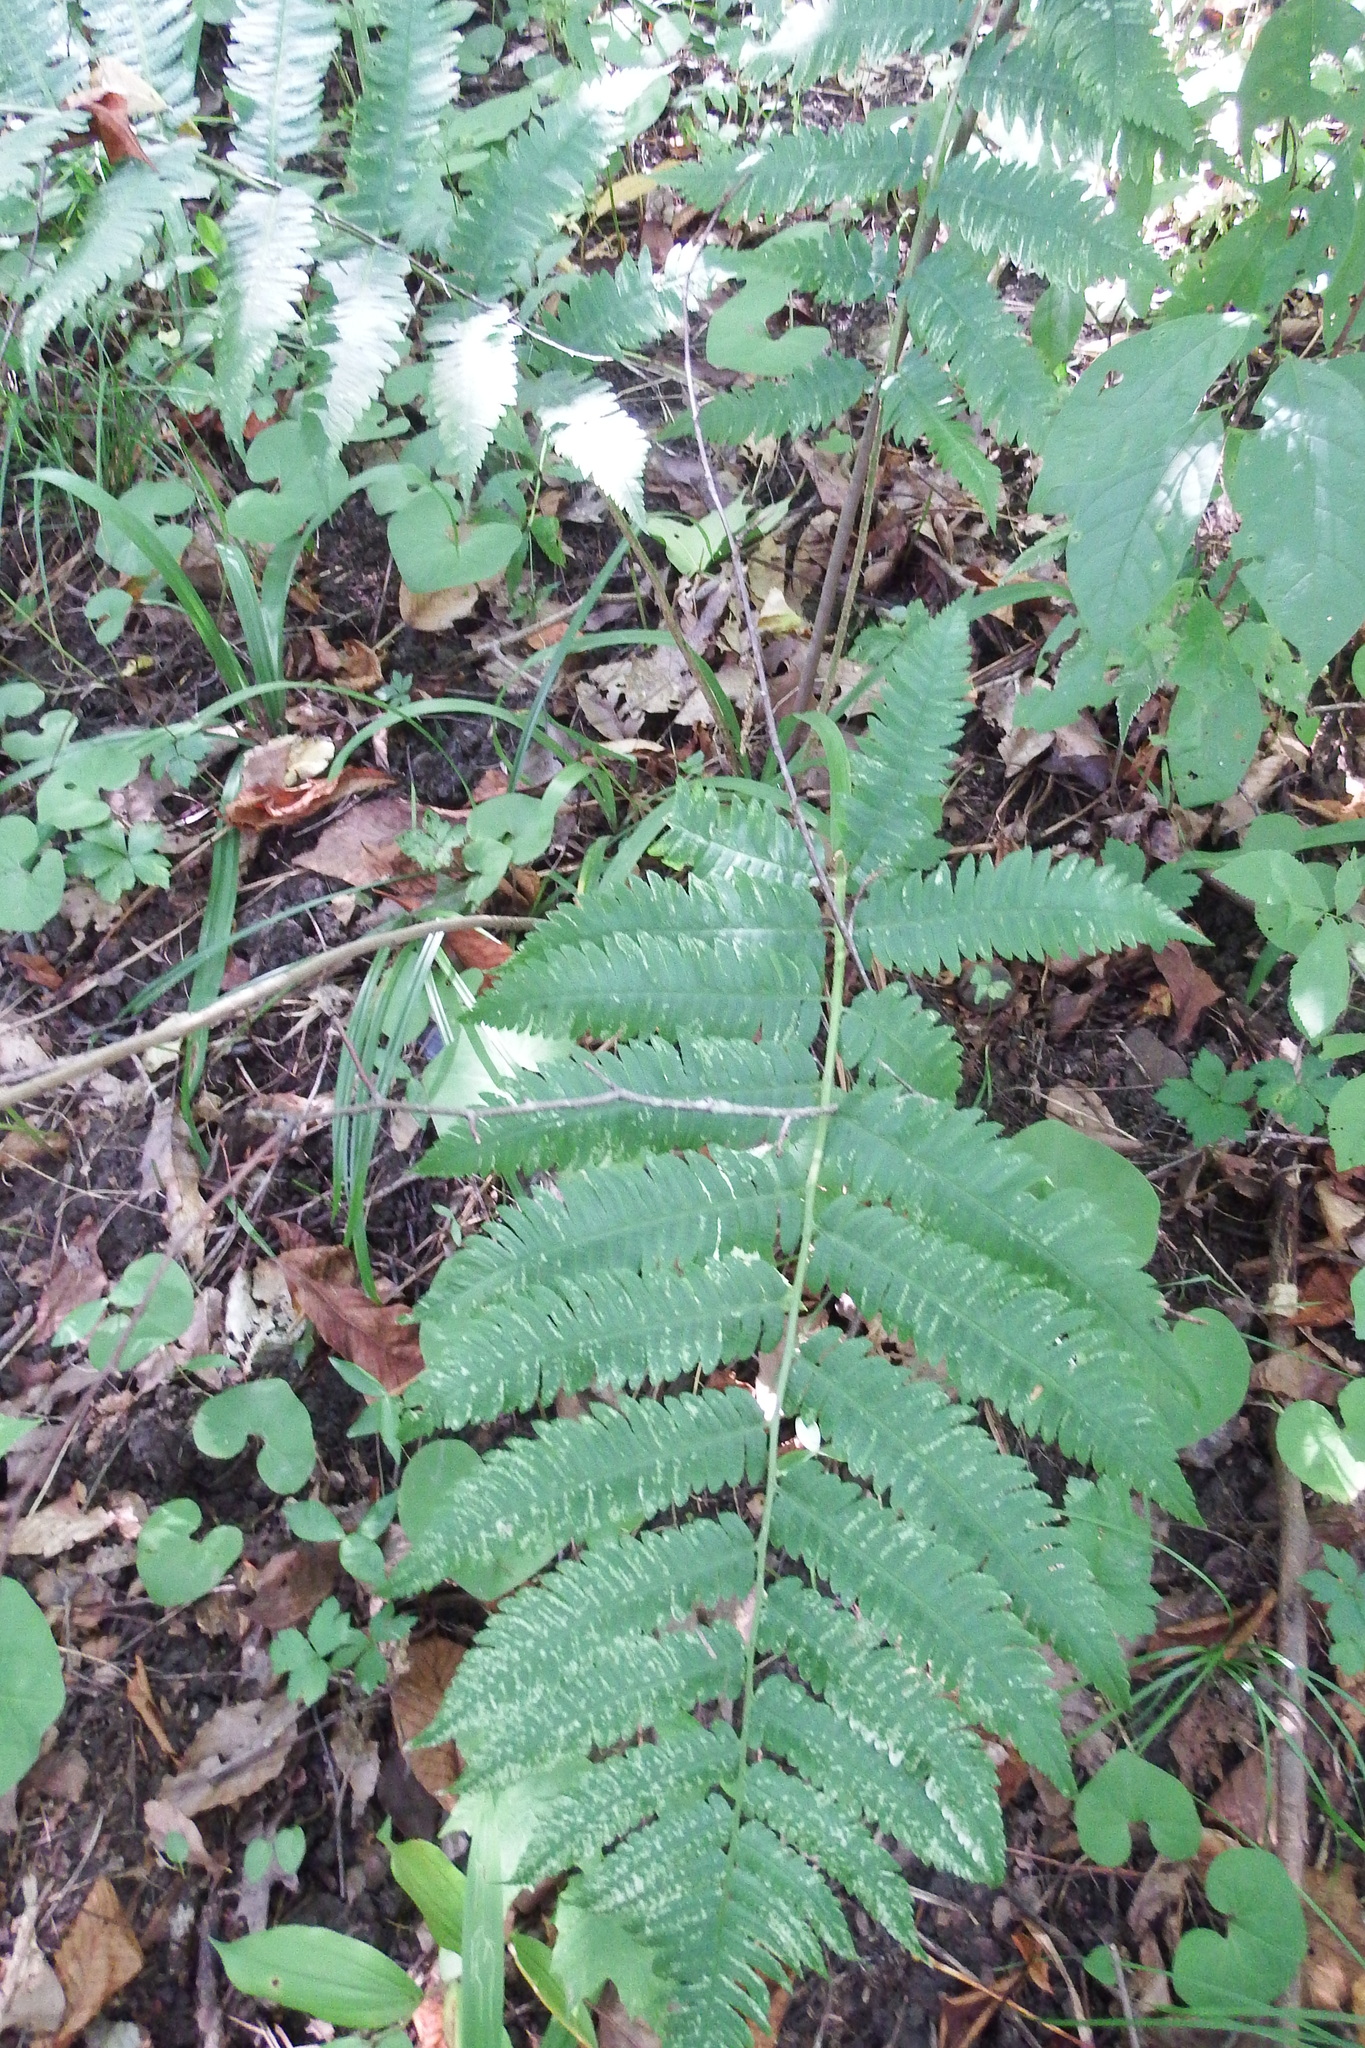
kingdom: Plantae
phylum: Tracheophyta
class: Polypodiopsida
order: Polypodiales
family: Dryopteridaceae
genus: Dryopteris
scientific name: Dryopteris goldieana
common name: Goldie's fern
